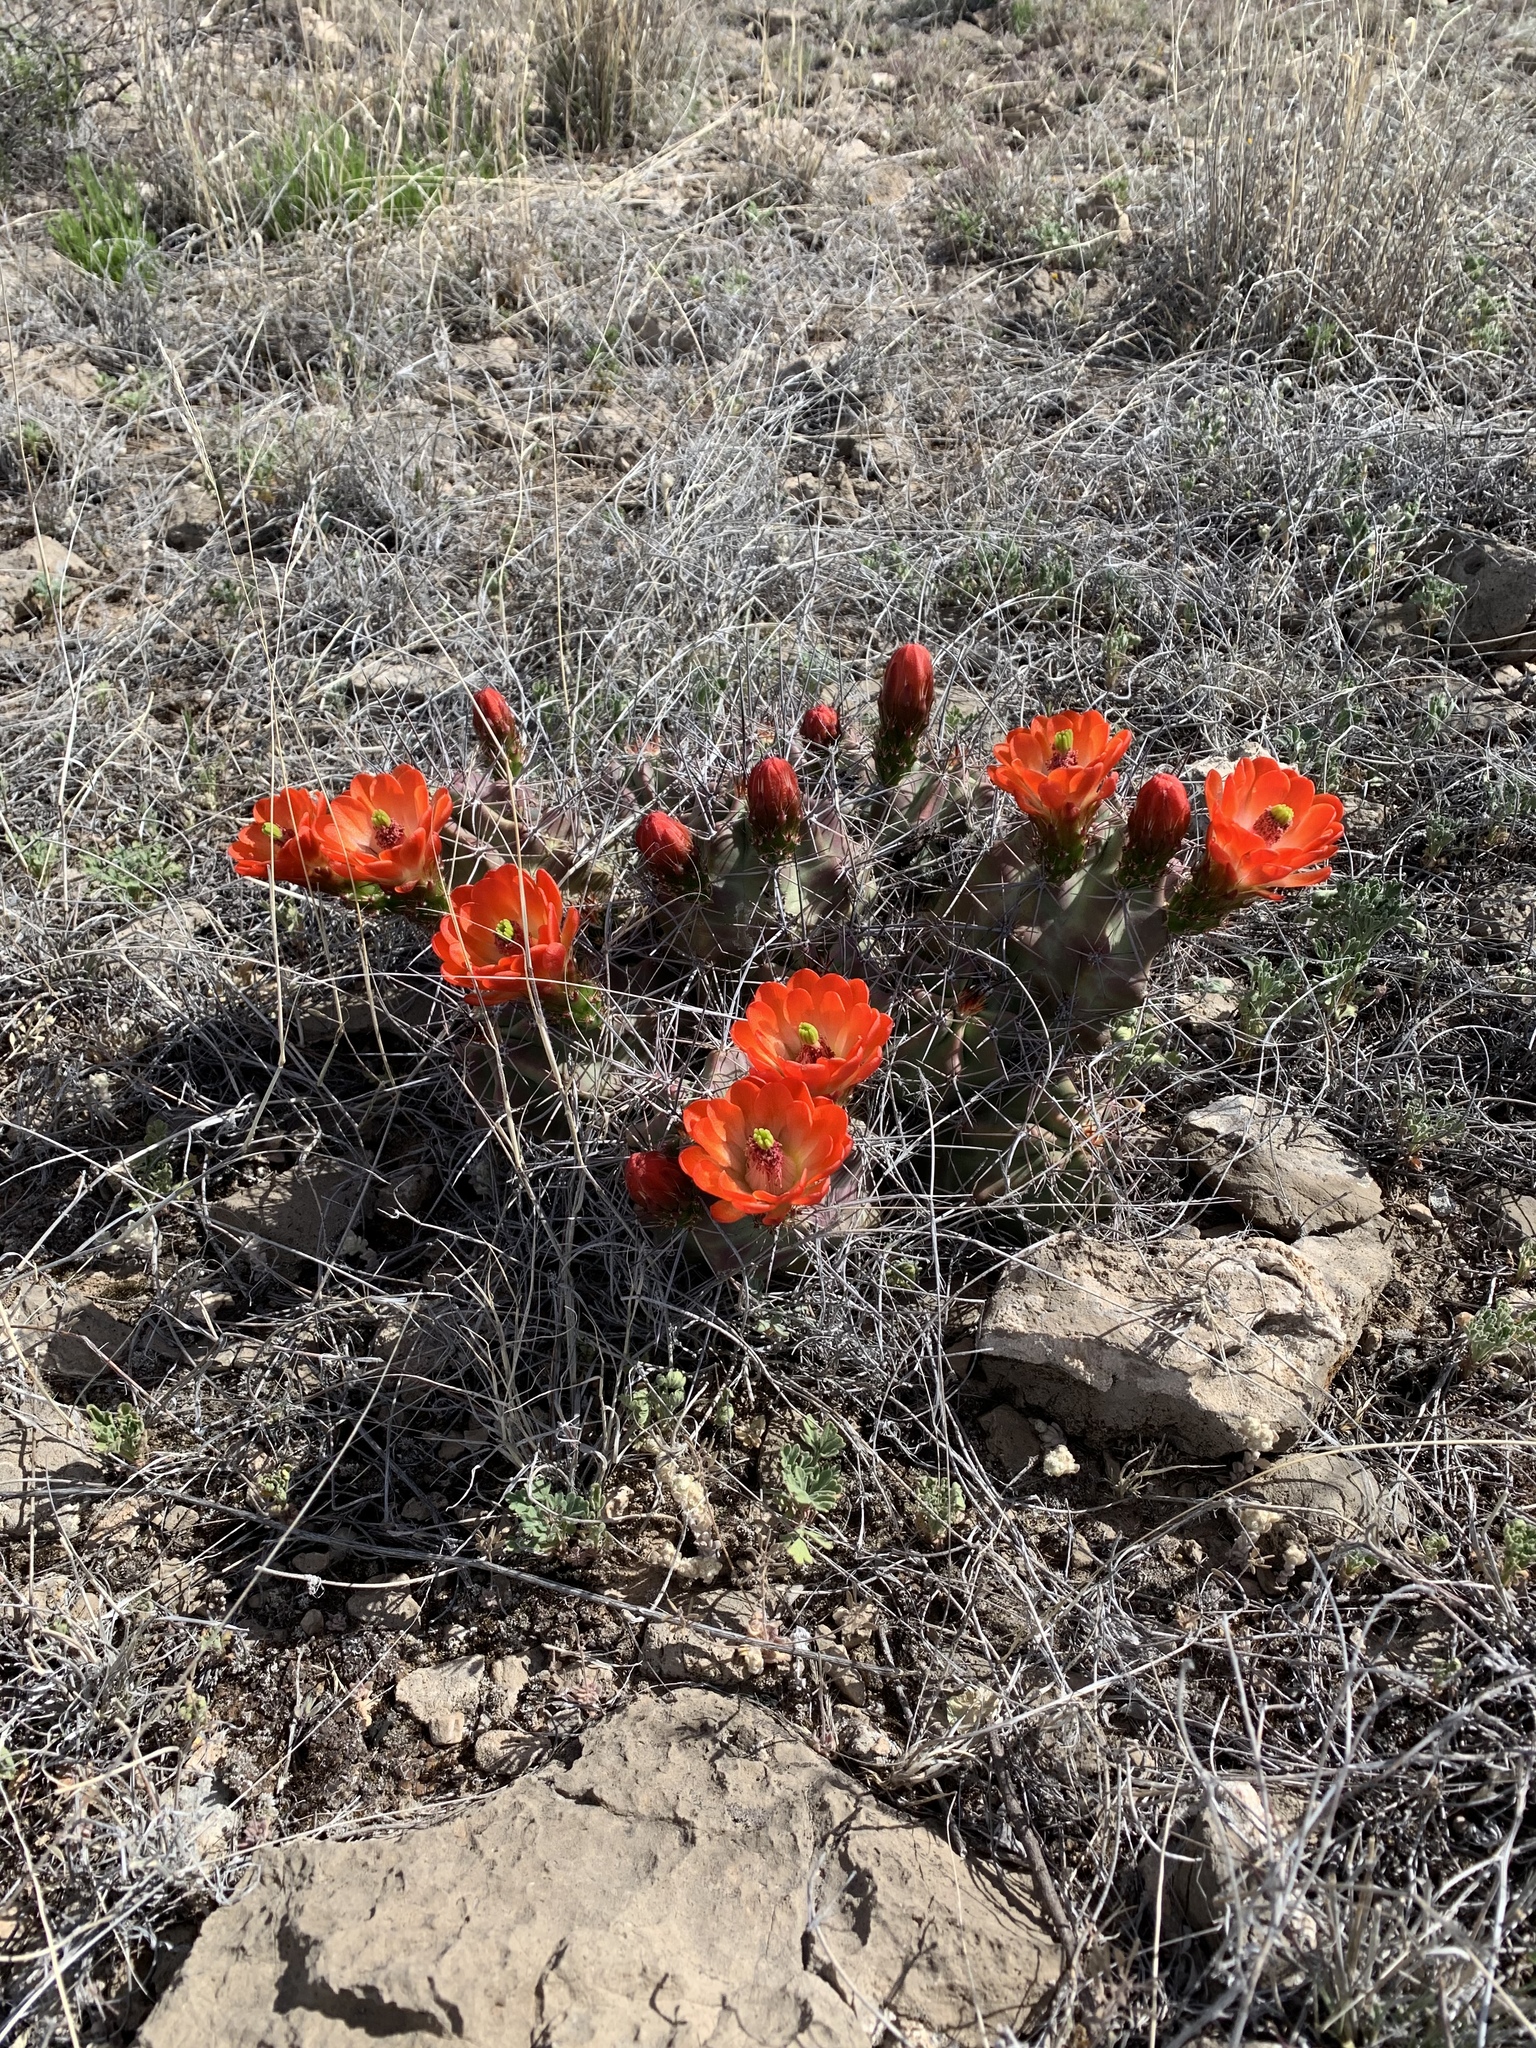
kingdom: Plantae
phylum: Tracheophyta
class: Magnoliopsida
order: Caryophyllales
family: Cactaceae
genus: Echinocereus
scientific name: Echinocereus coccineus
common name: Scarlet hedgehog cactus
